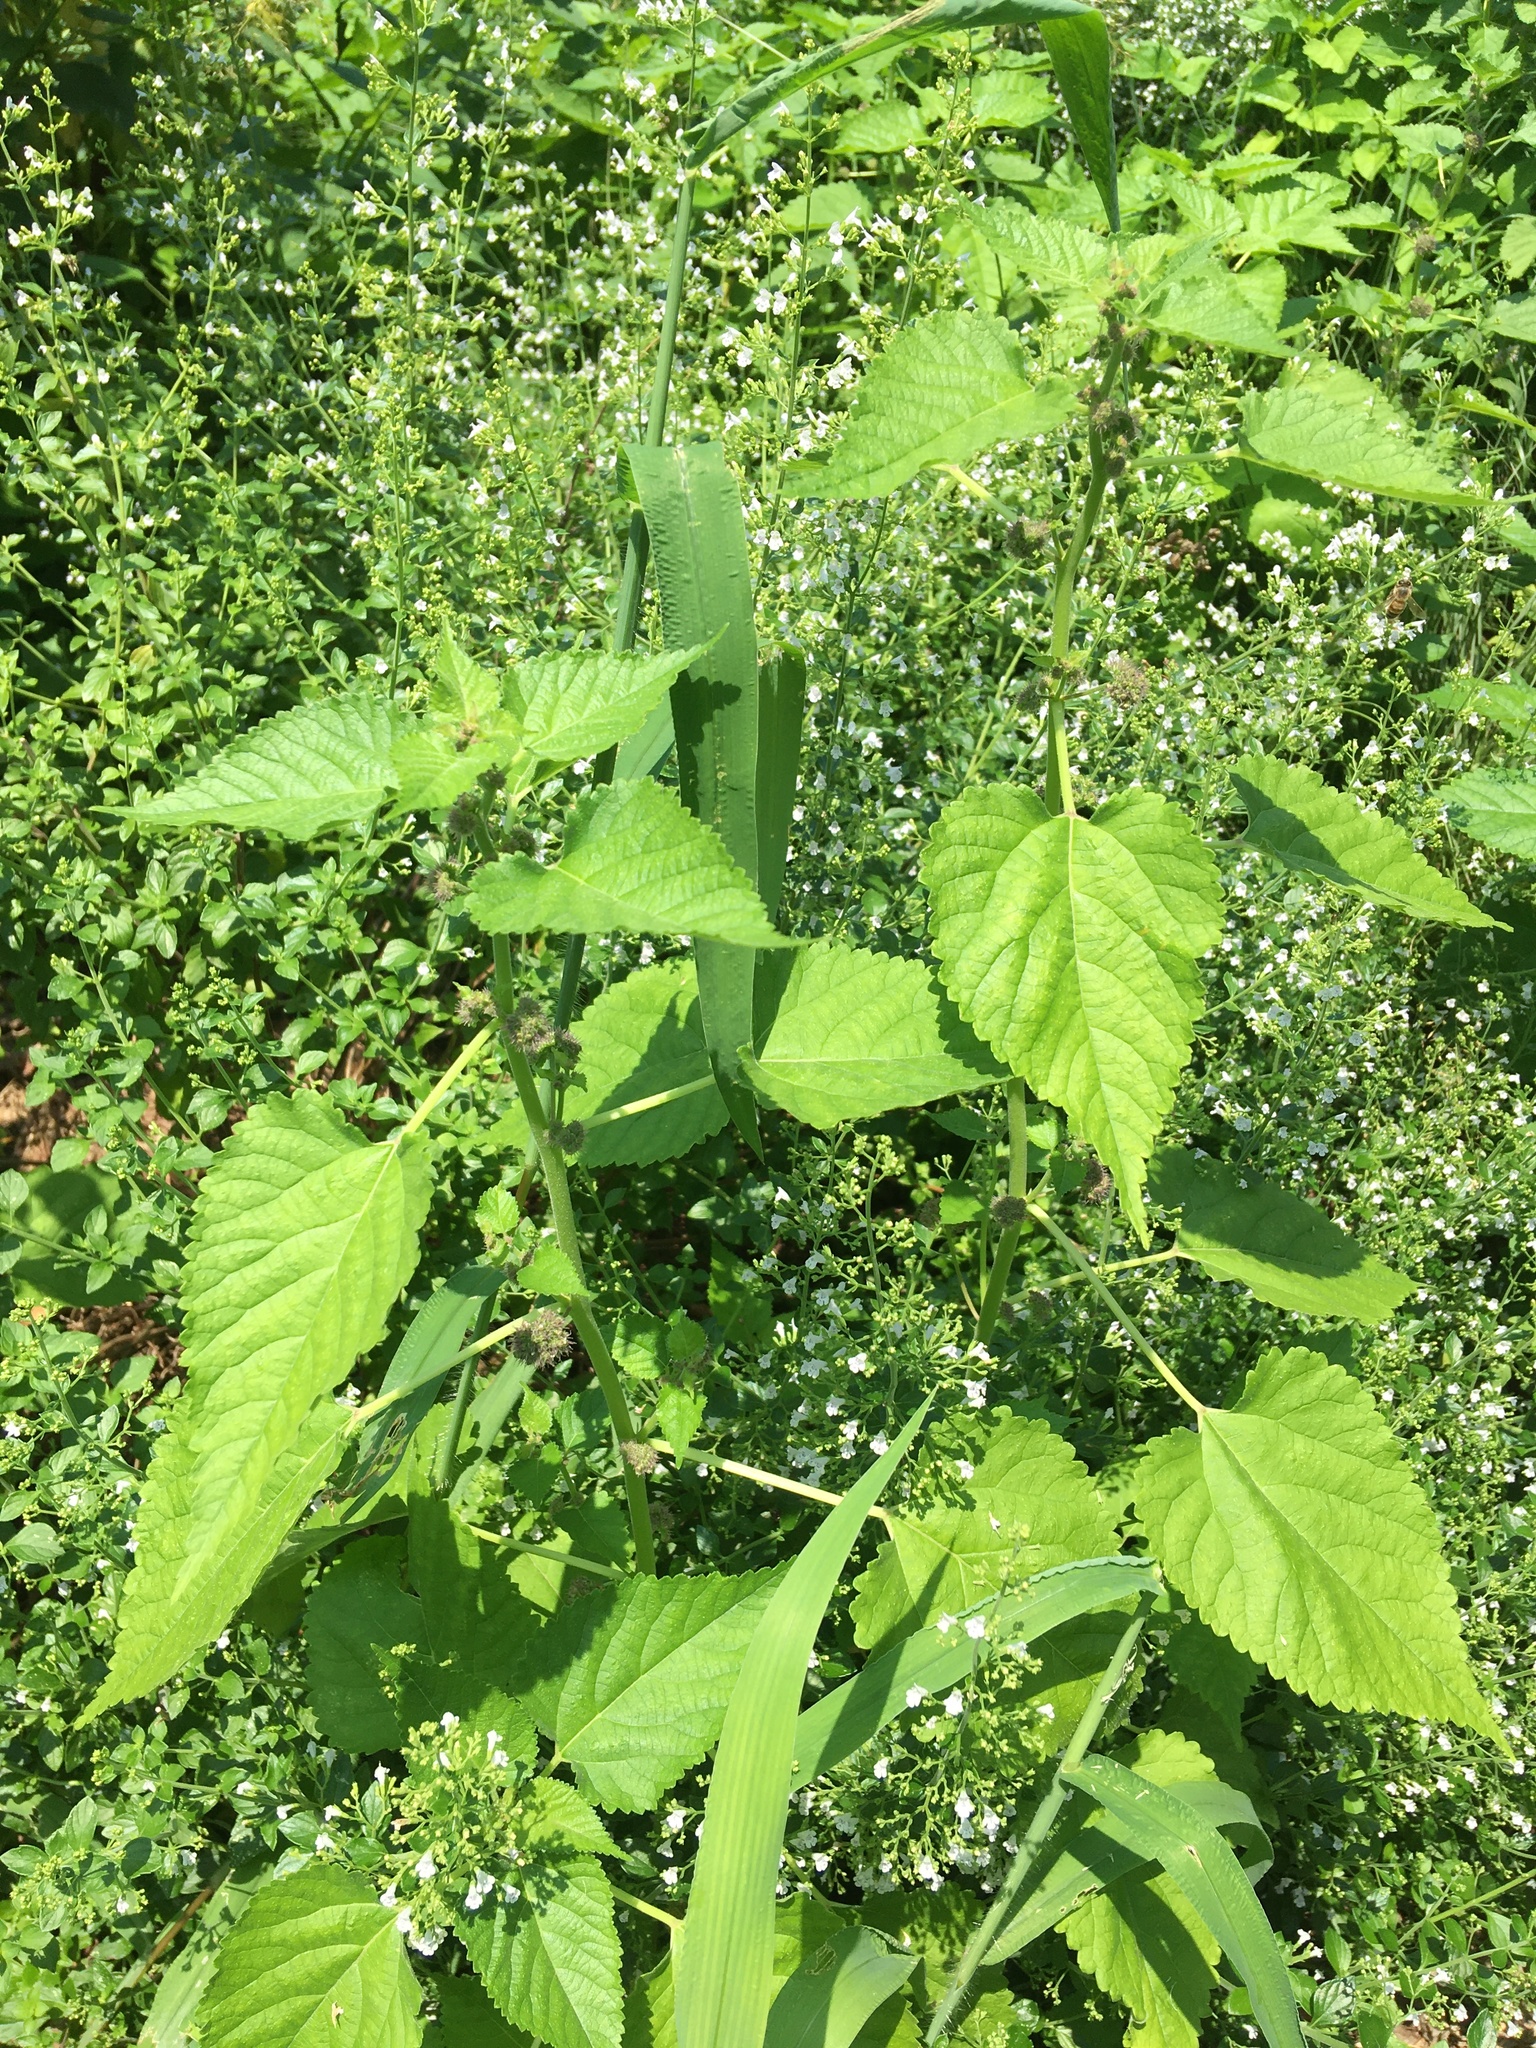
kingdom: Plantae
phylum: Tracheophyta
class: Magnoliopsida
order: Rosales
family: Moraceae
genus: Fatoua
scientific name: Fatoua villosa
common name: Hairy crabweed
